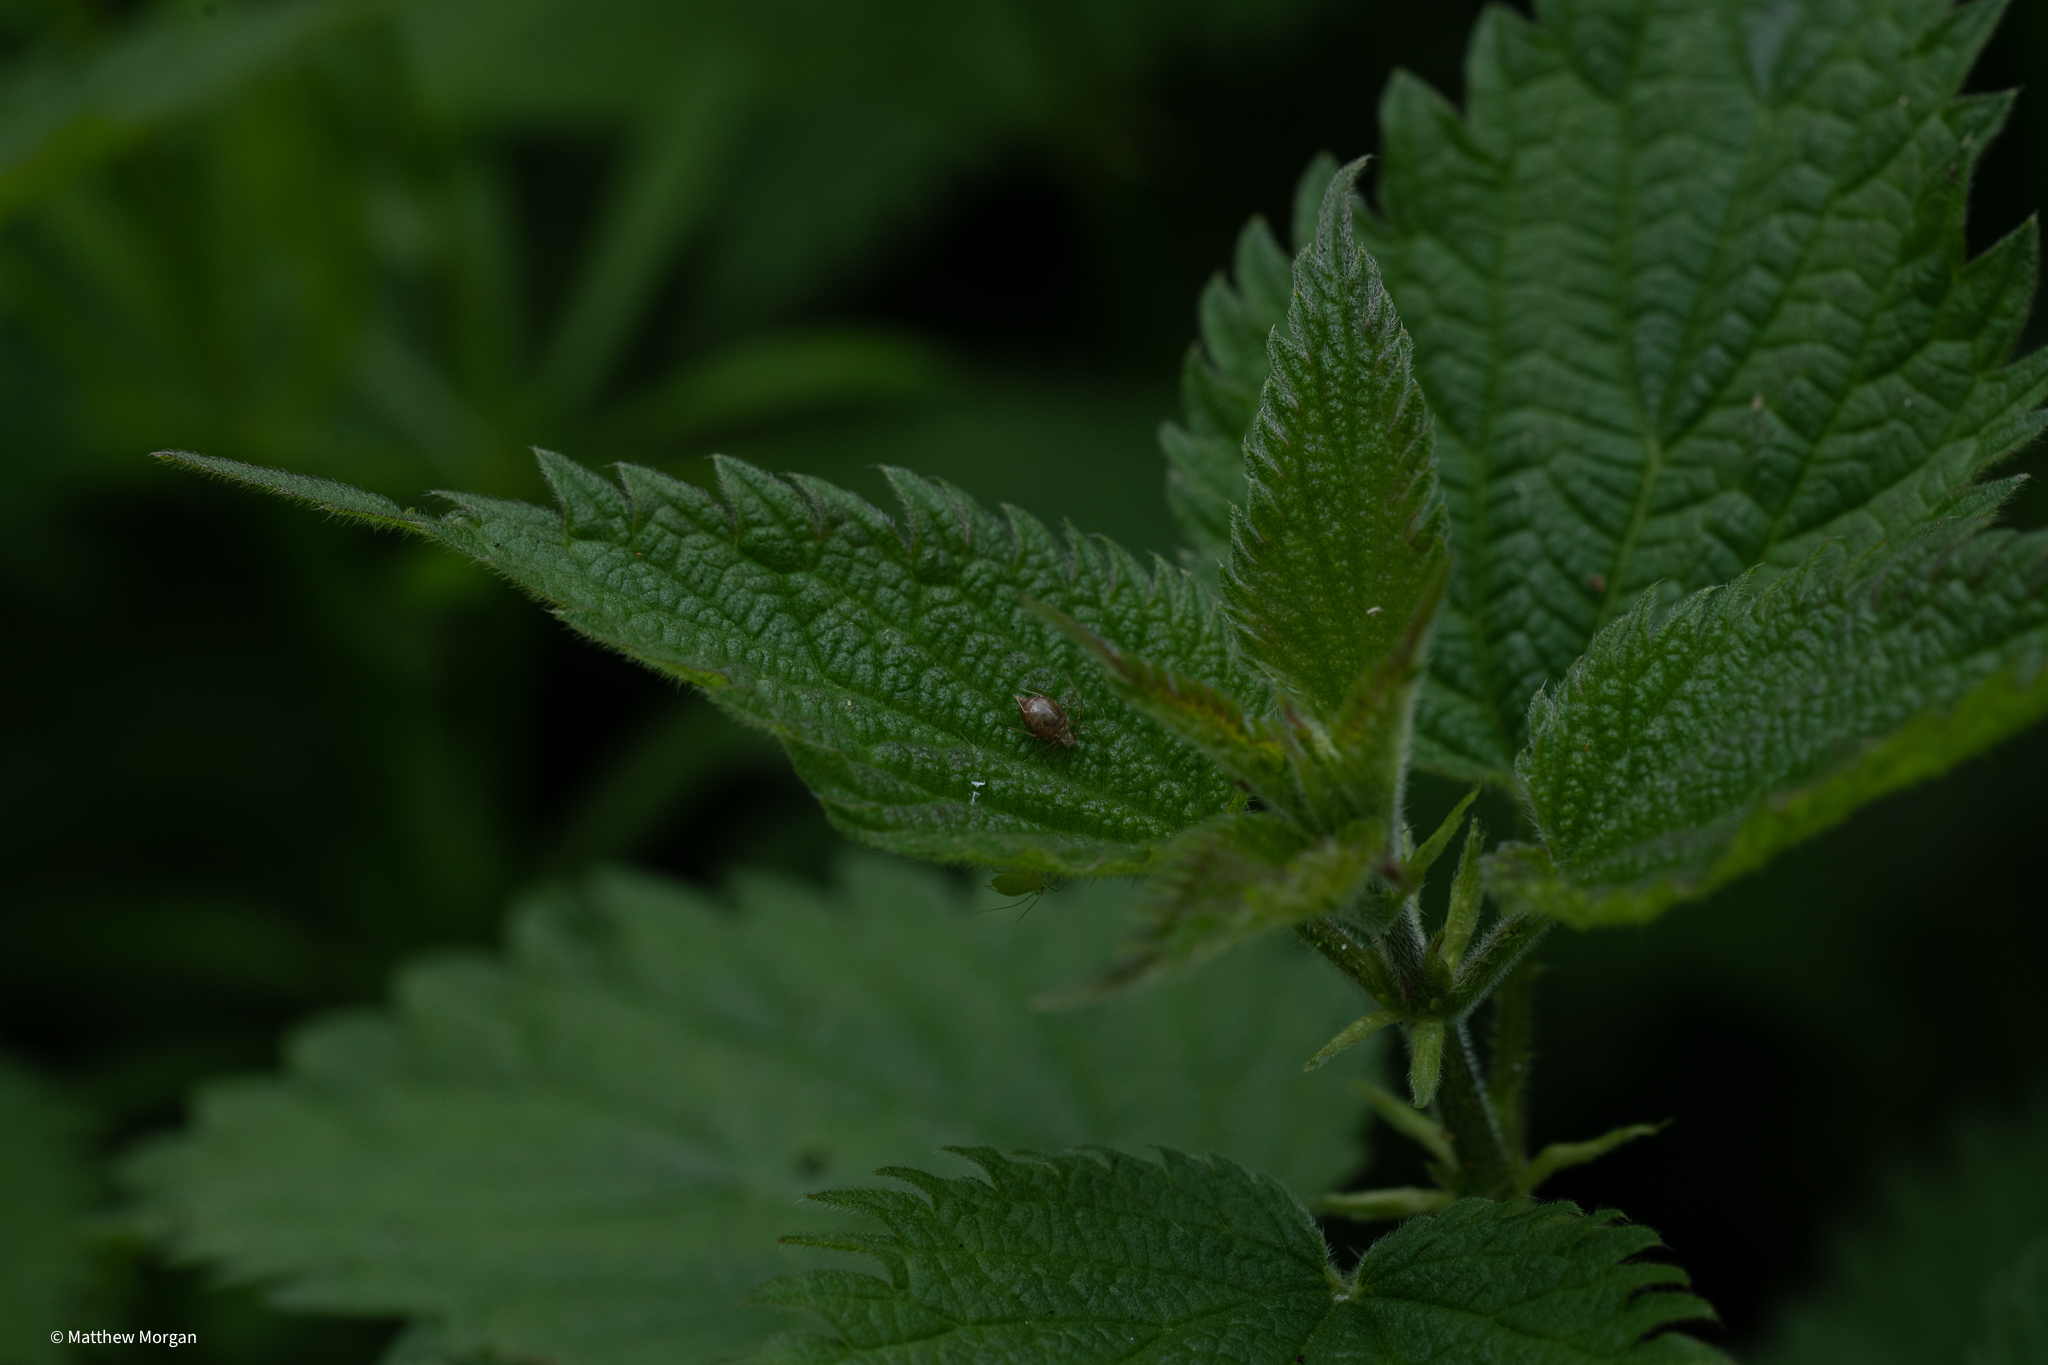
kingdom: Animalia
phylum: Arthropoda
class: Insecta
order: Hemiptera
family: Aphididae
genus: Microlophium
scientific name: Microlophium carnosum
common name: Aphid
